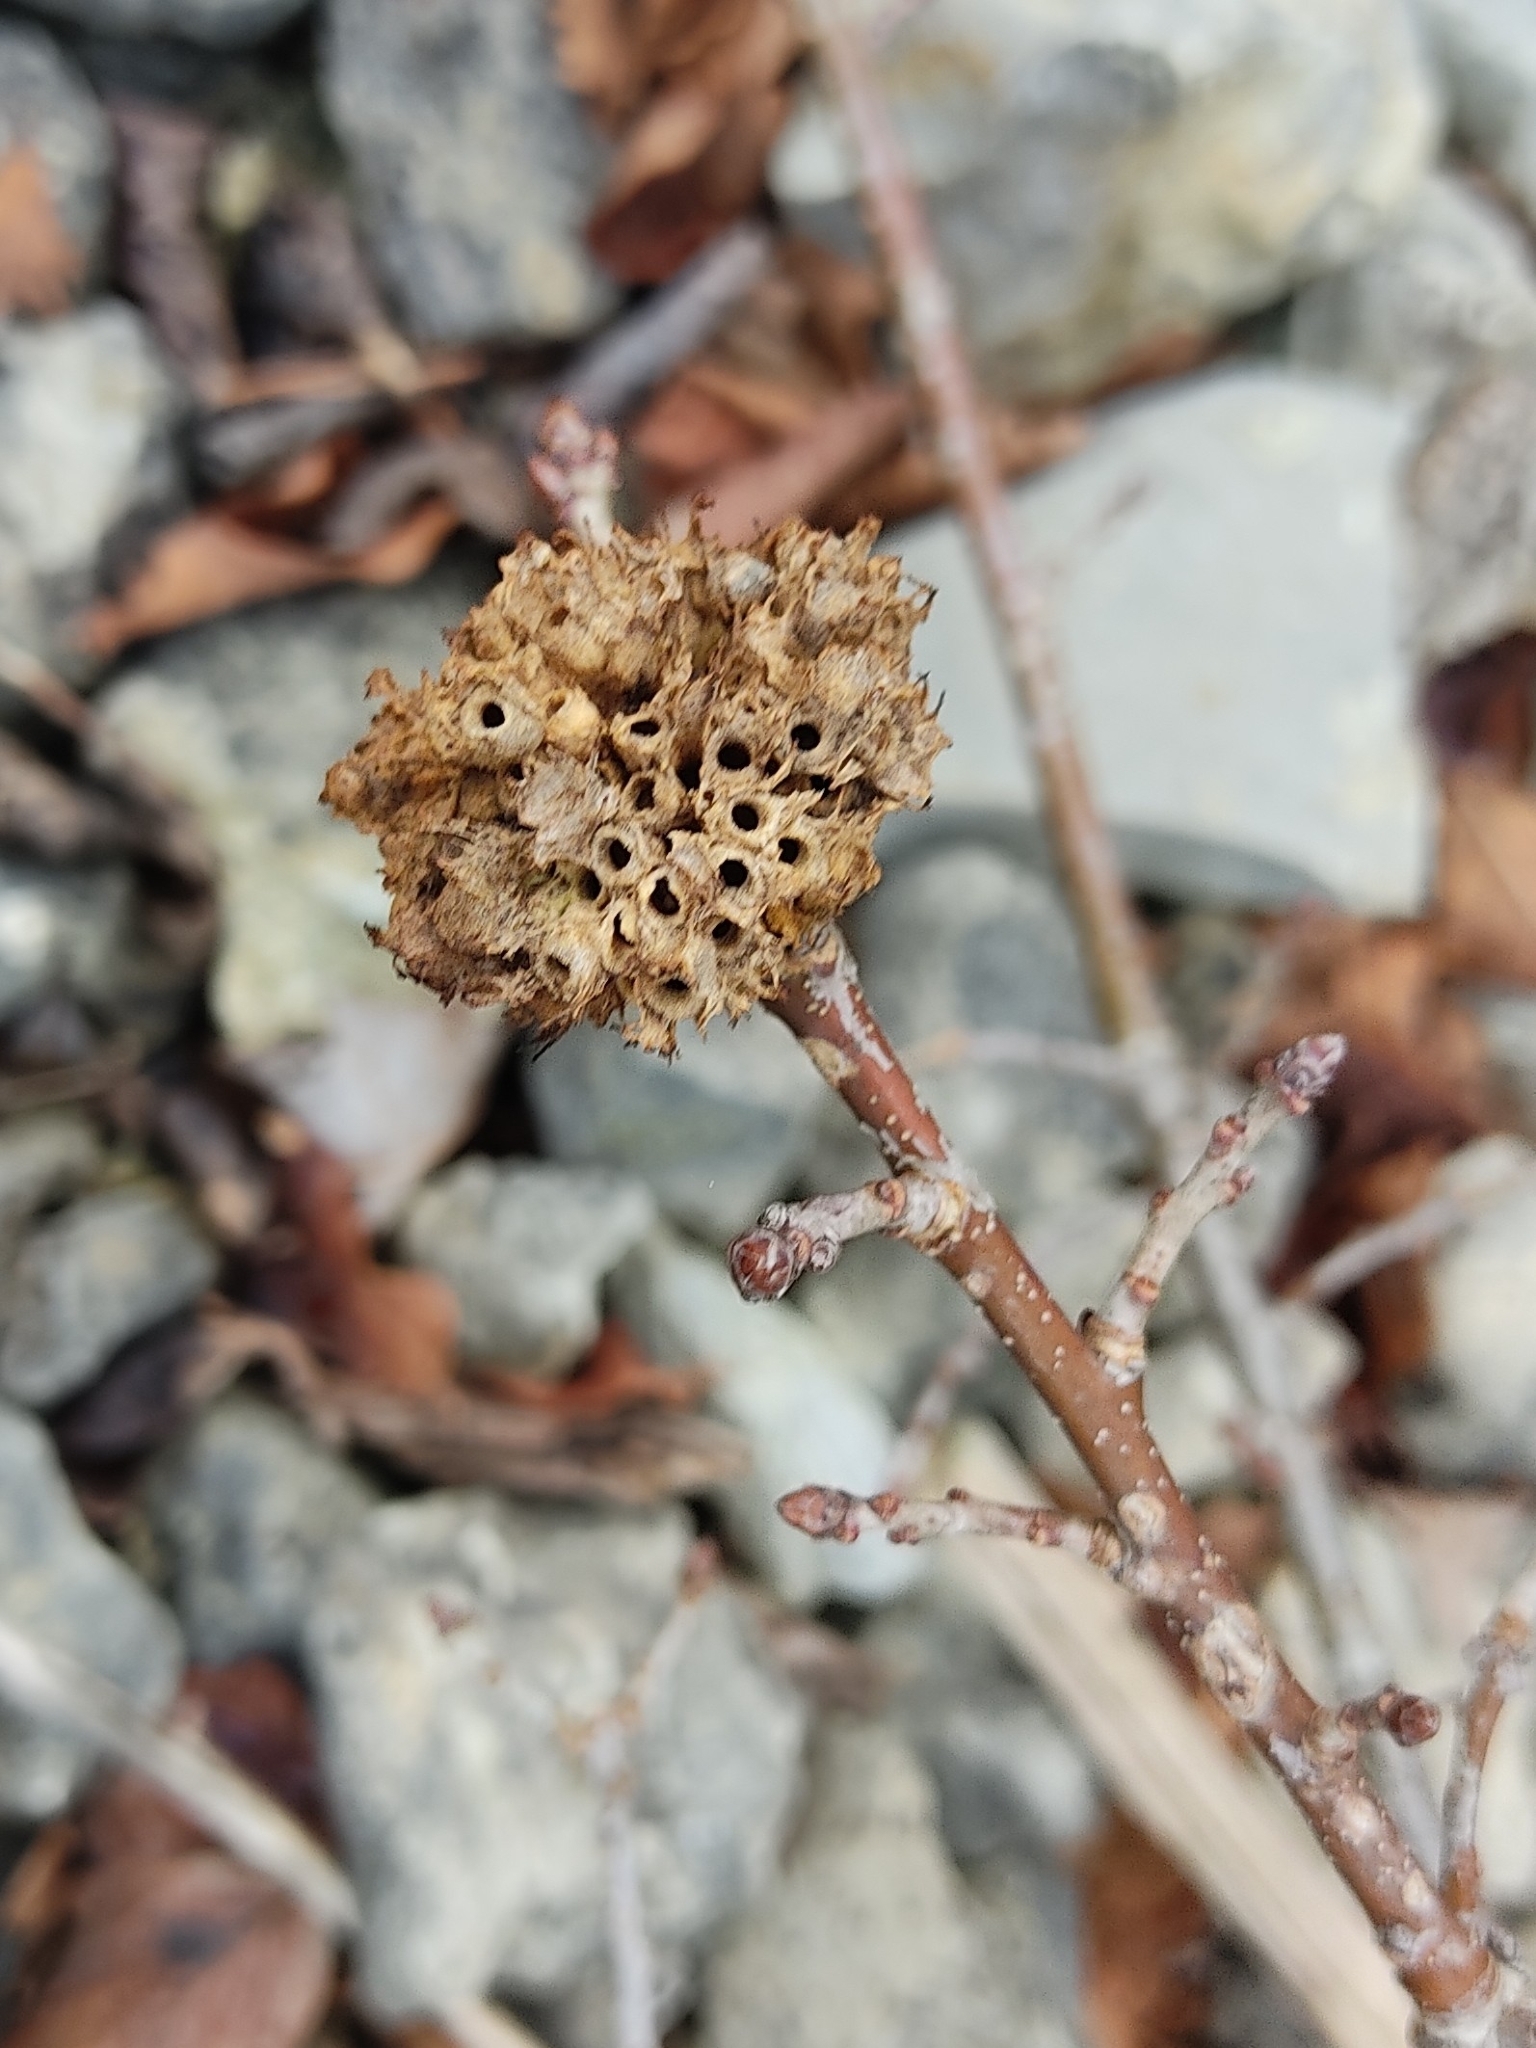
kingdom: Animalia
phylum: Arthropoda
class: Insecta
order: Hymenoptera
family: Cynipidae
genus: Biorhiza
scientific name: Biorhiza pallida
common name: Oak apple
